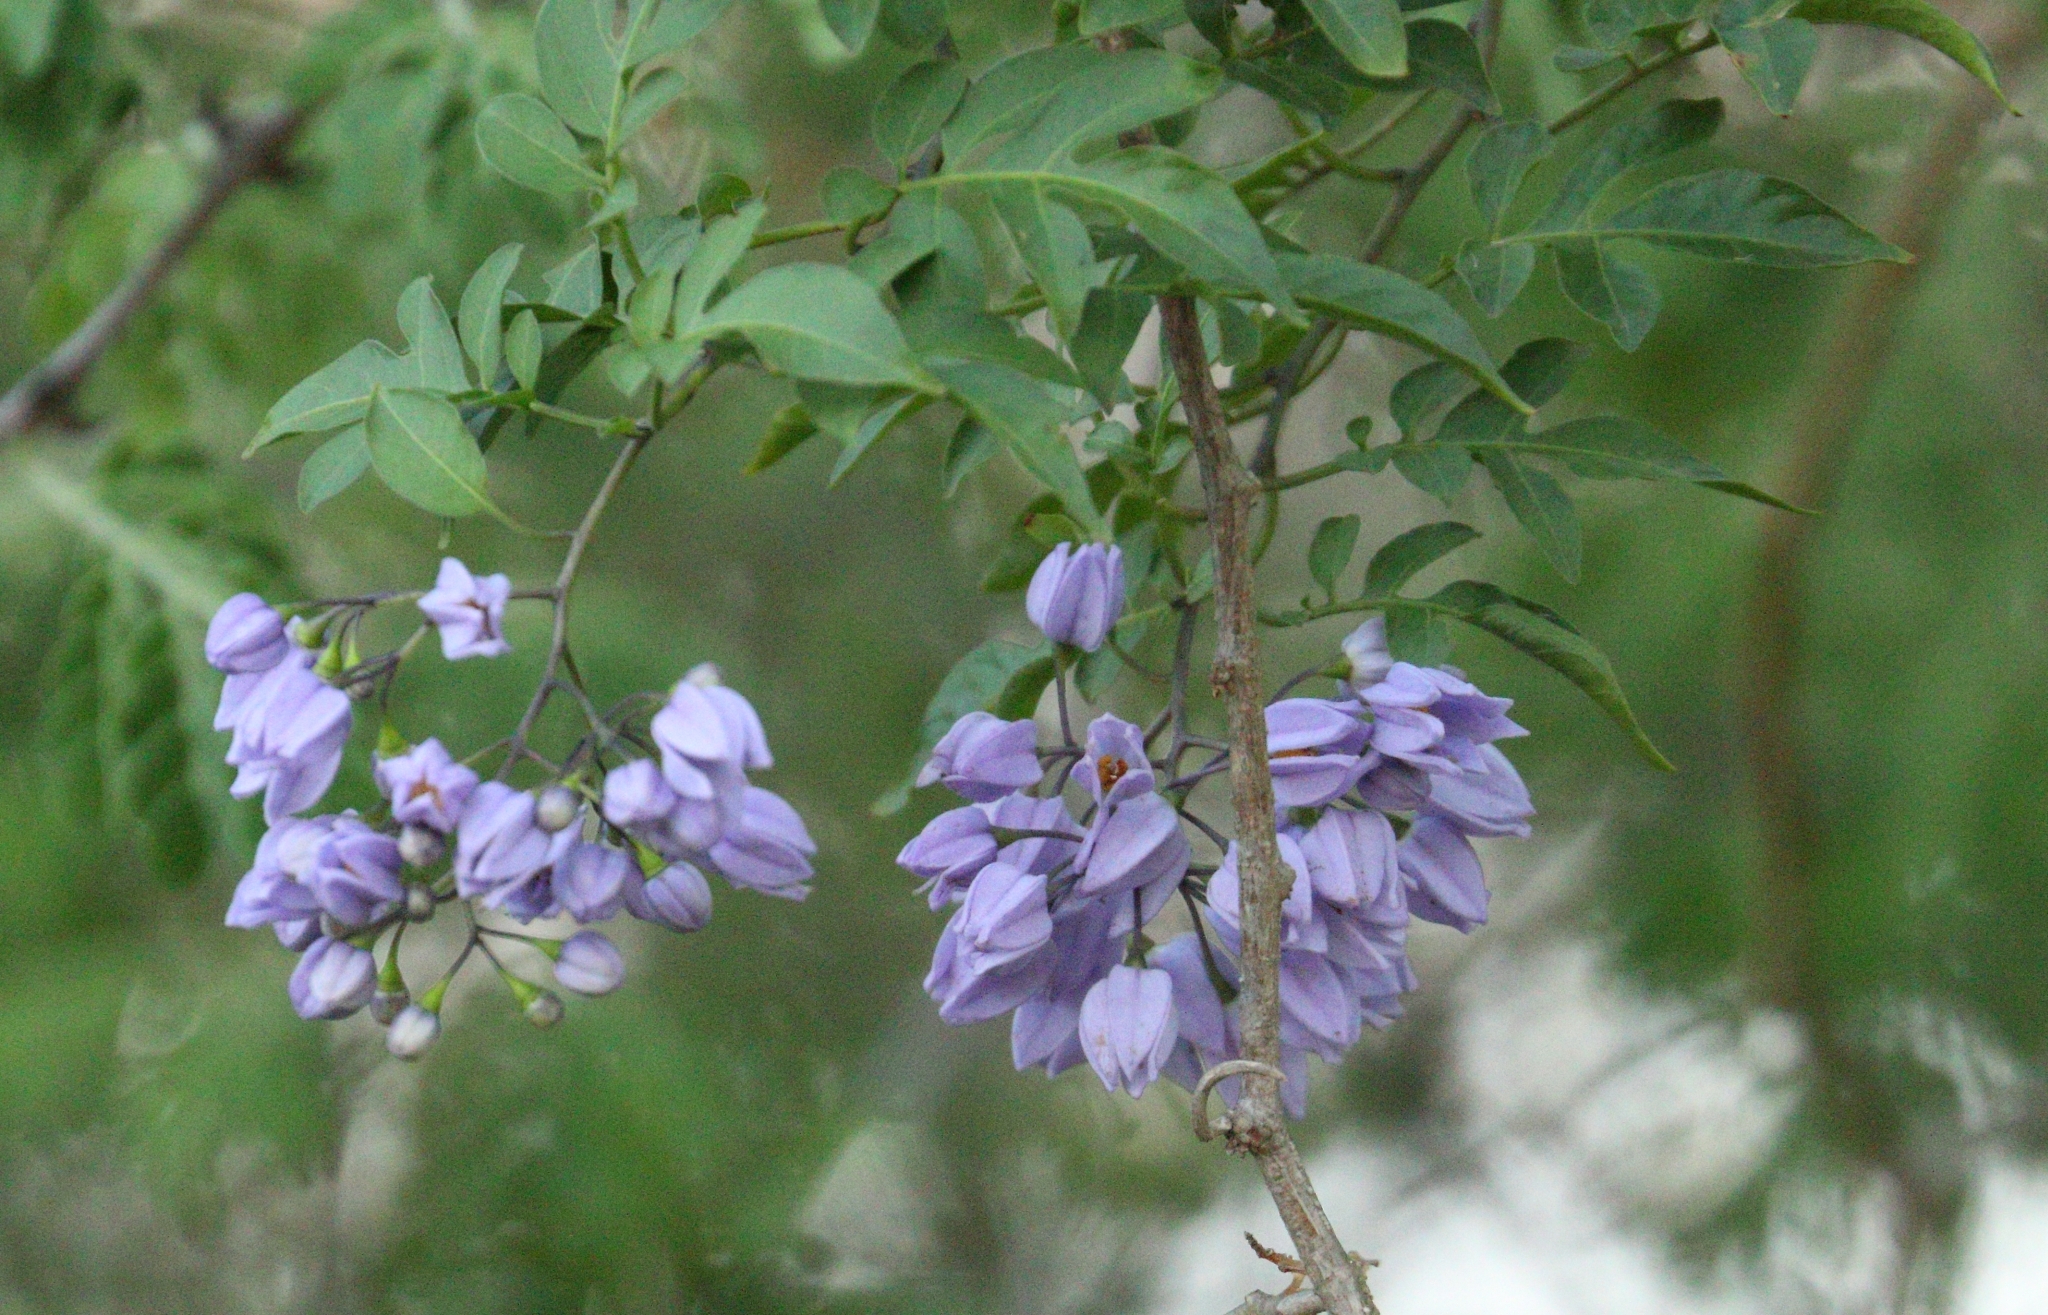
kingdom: Plantae
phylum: Tracheophyta
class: Magnoliopsida
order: Solanales
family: Solanaceae
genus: Solanum
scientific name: Solanum seaforthianum
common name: Brazilian nightshade
